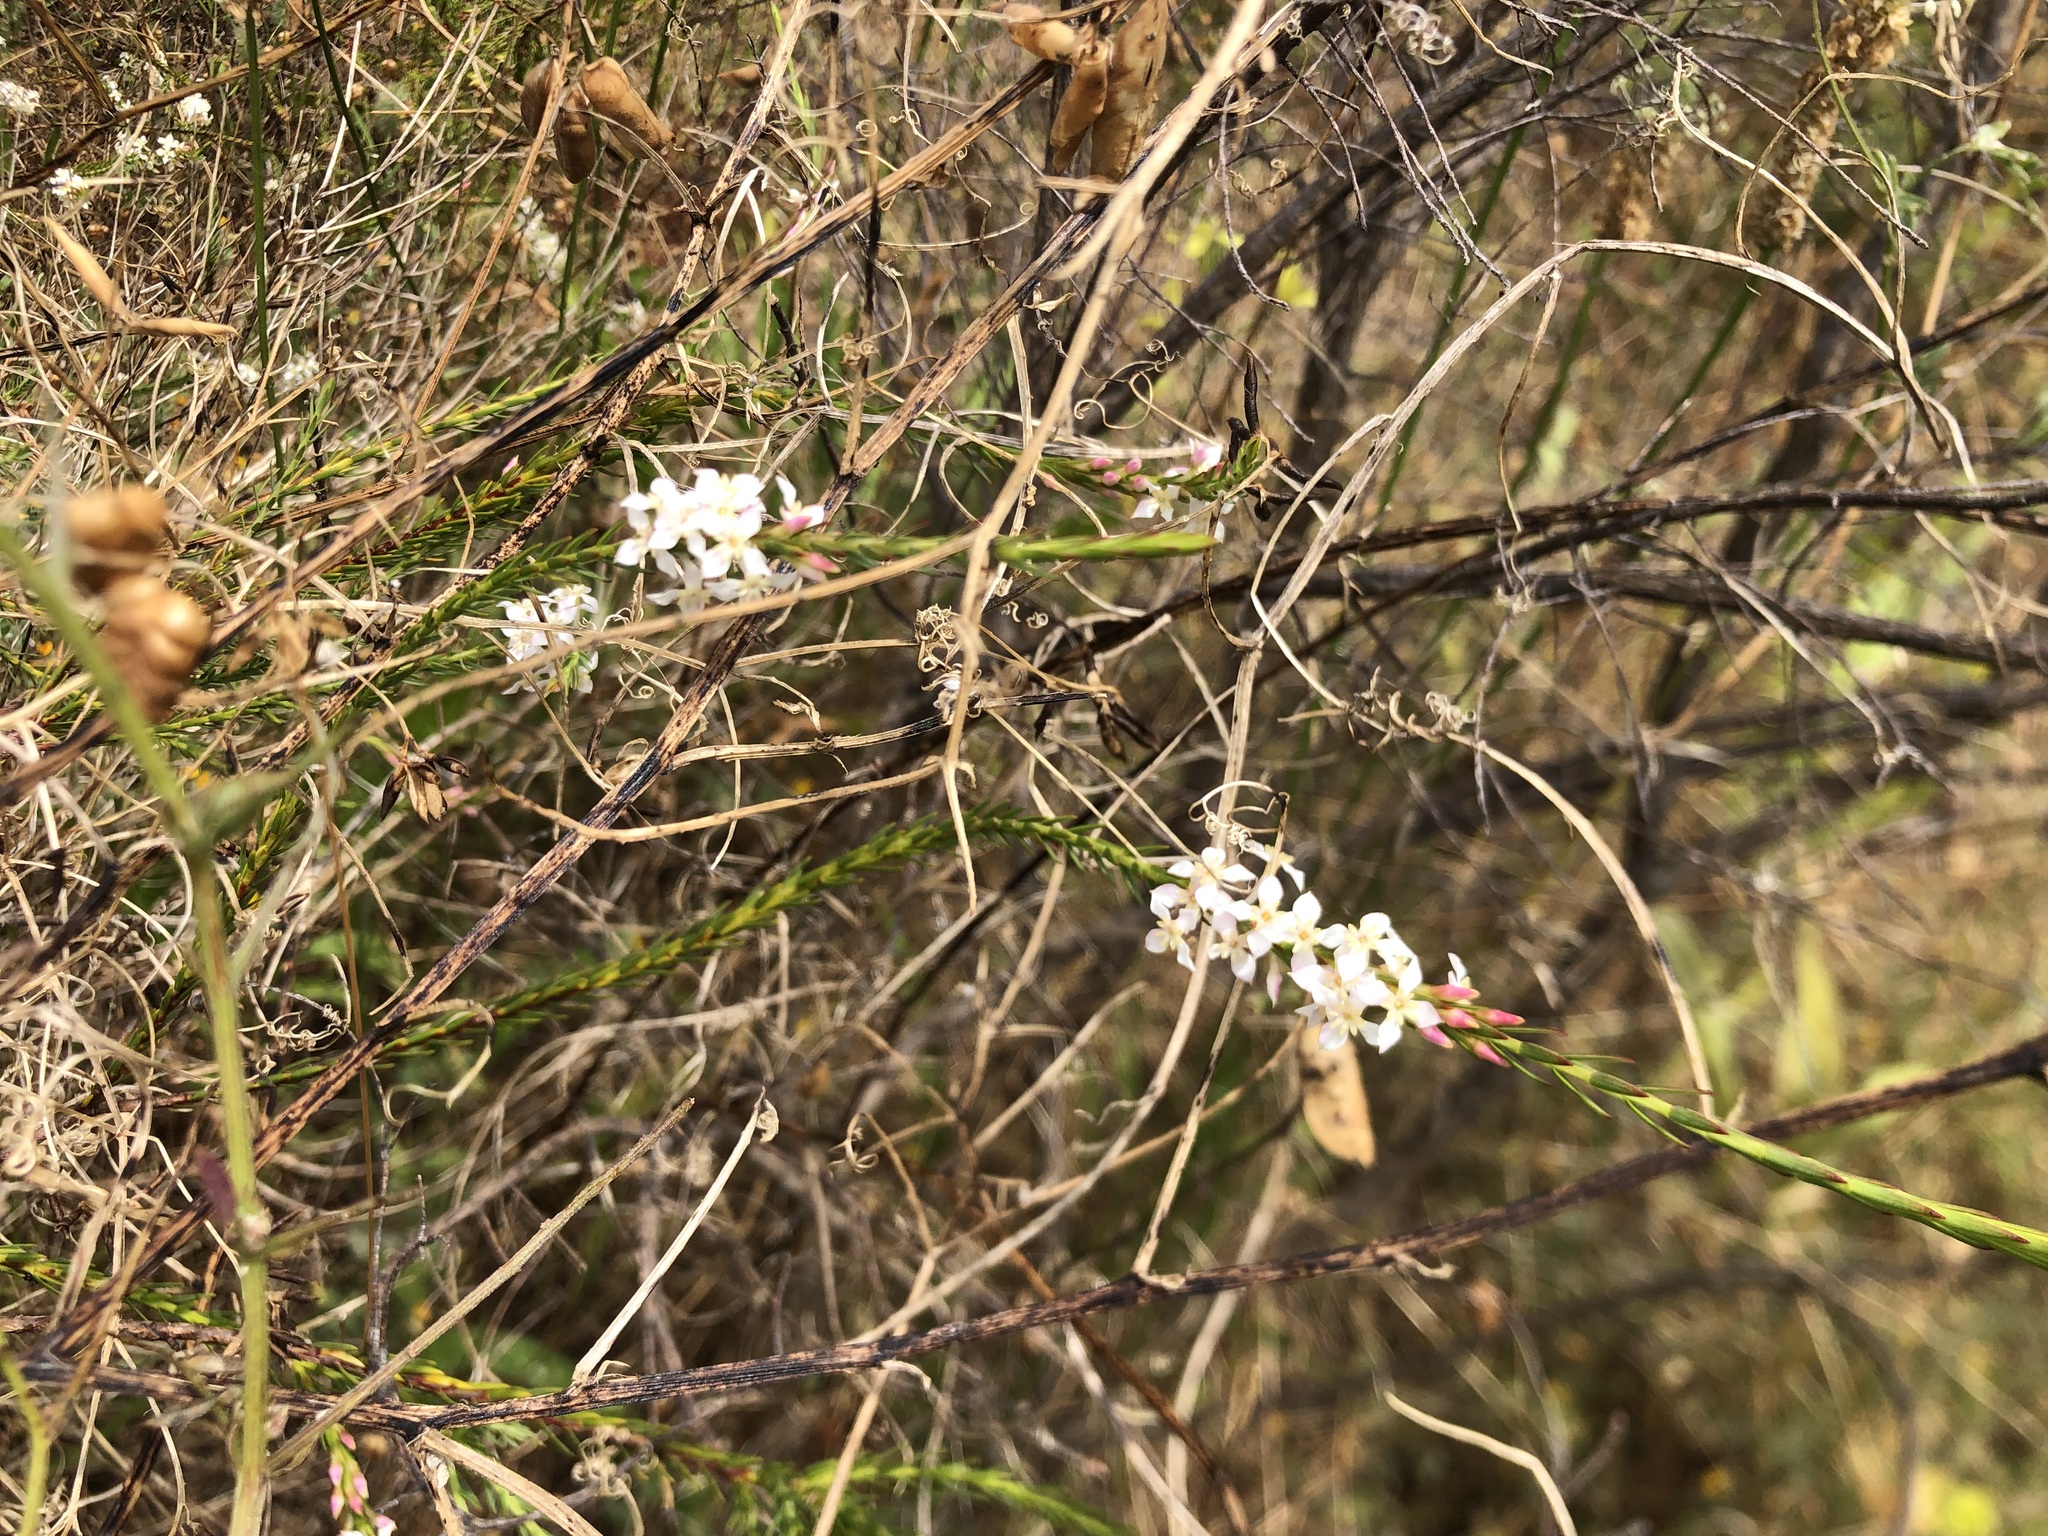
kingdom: Plantae
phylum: Tracheophyta
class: Magnoliopsida
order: Malvales
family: Thymelaeaceae
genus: Struthiola
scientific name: Struthiola dodecandra
